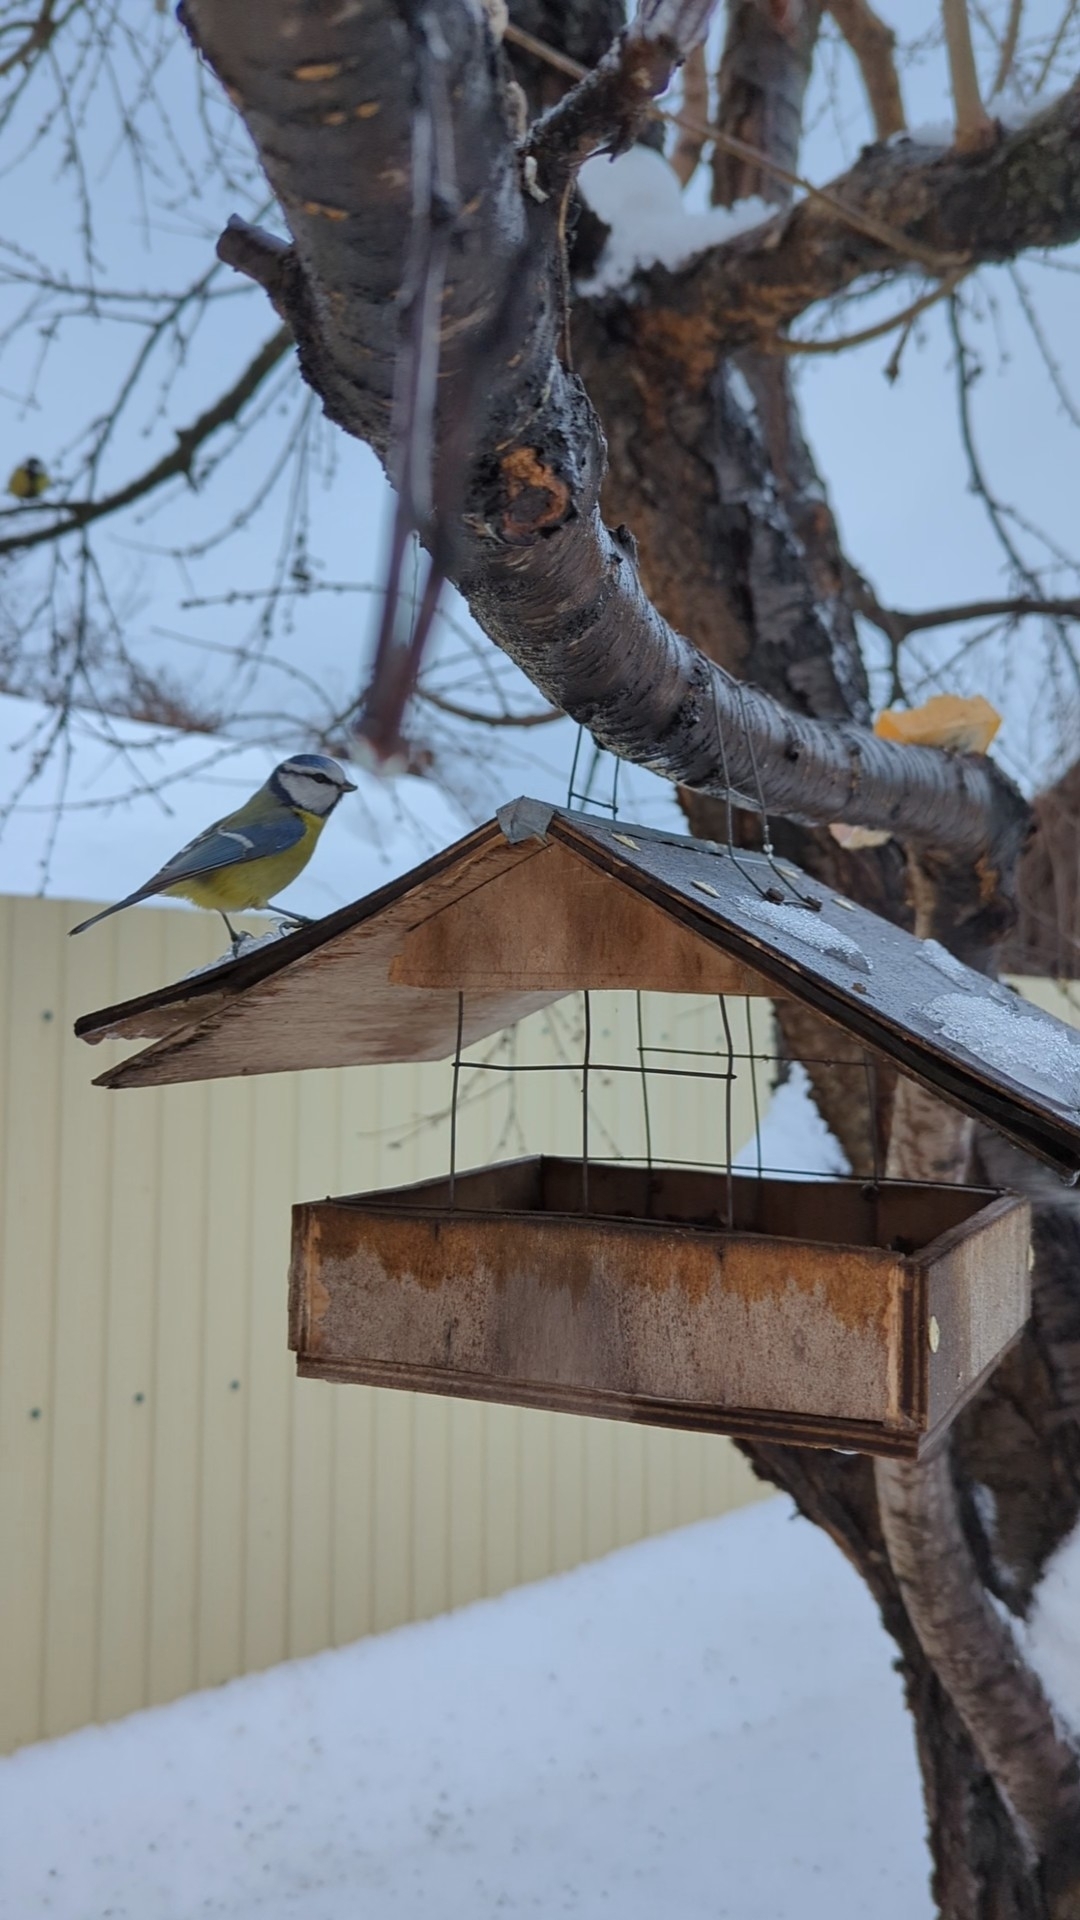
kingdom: Animalia
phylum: Chordata
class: Aves
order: Passeriformes
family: Paridae
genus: Cyanistes
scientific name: Cyanistes caeruleus
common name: Eurasian blue tit
